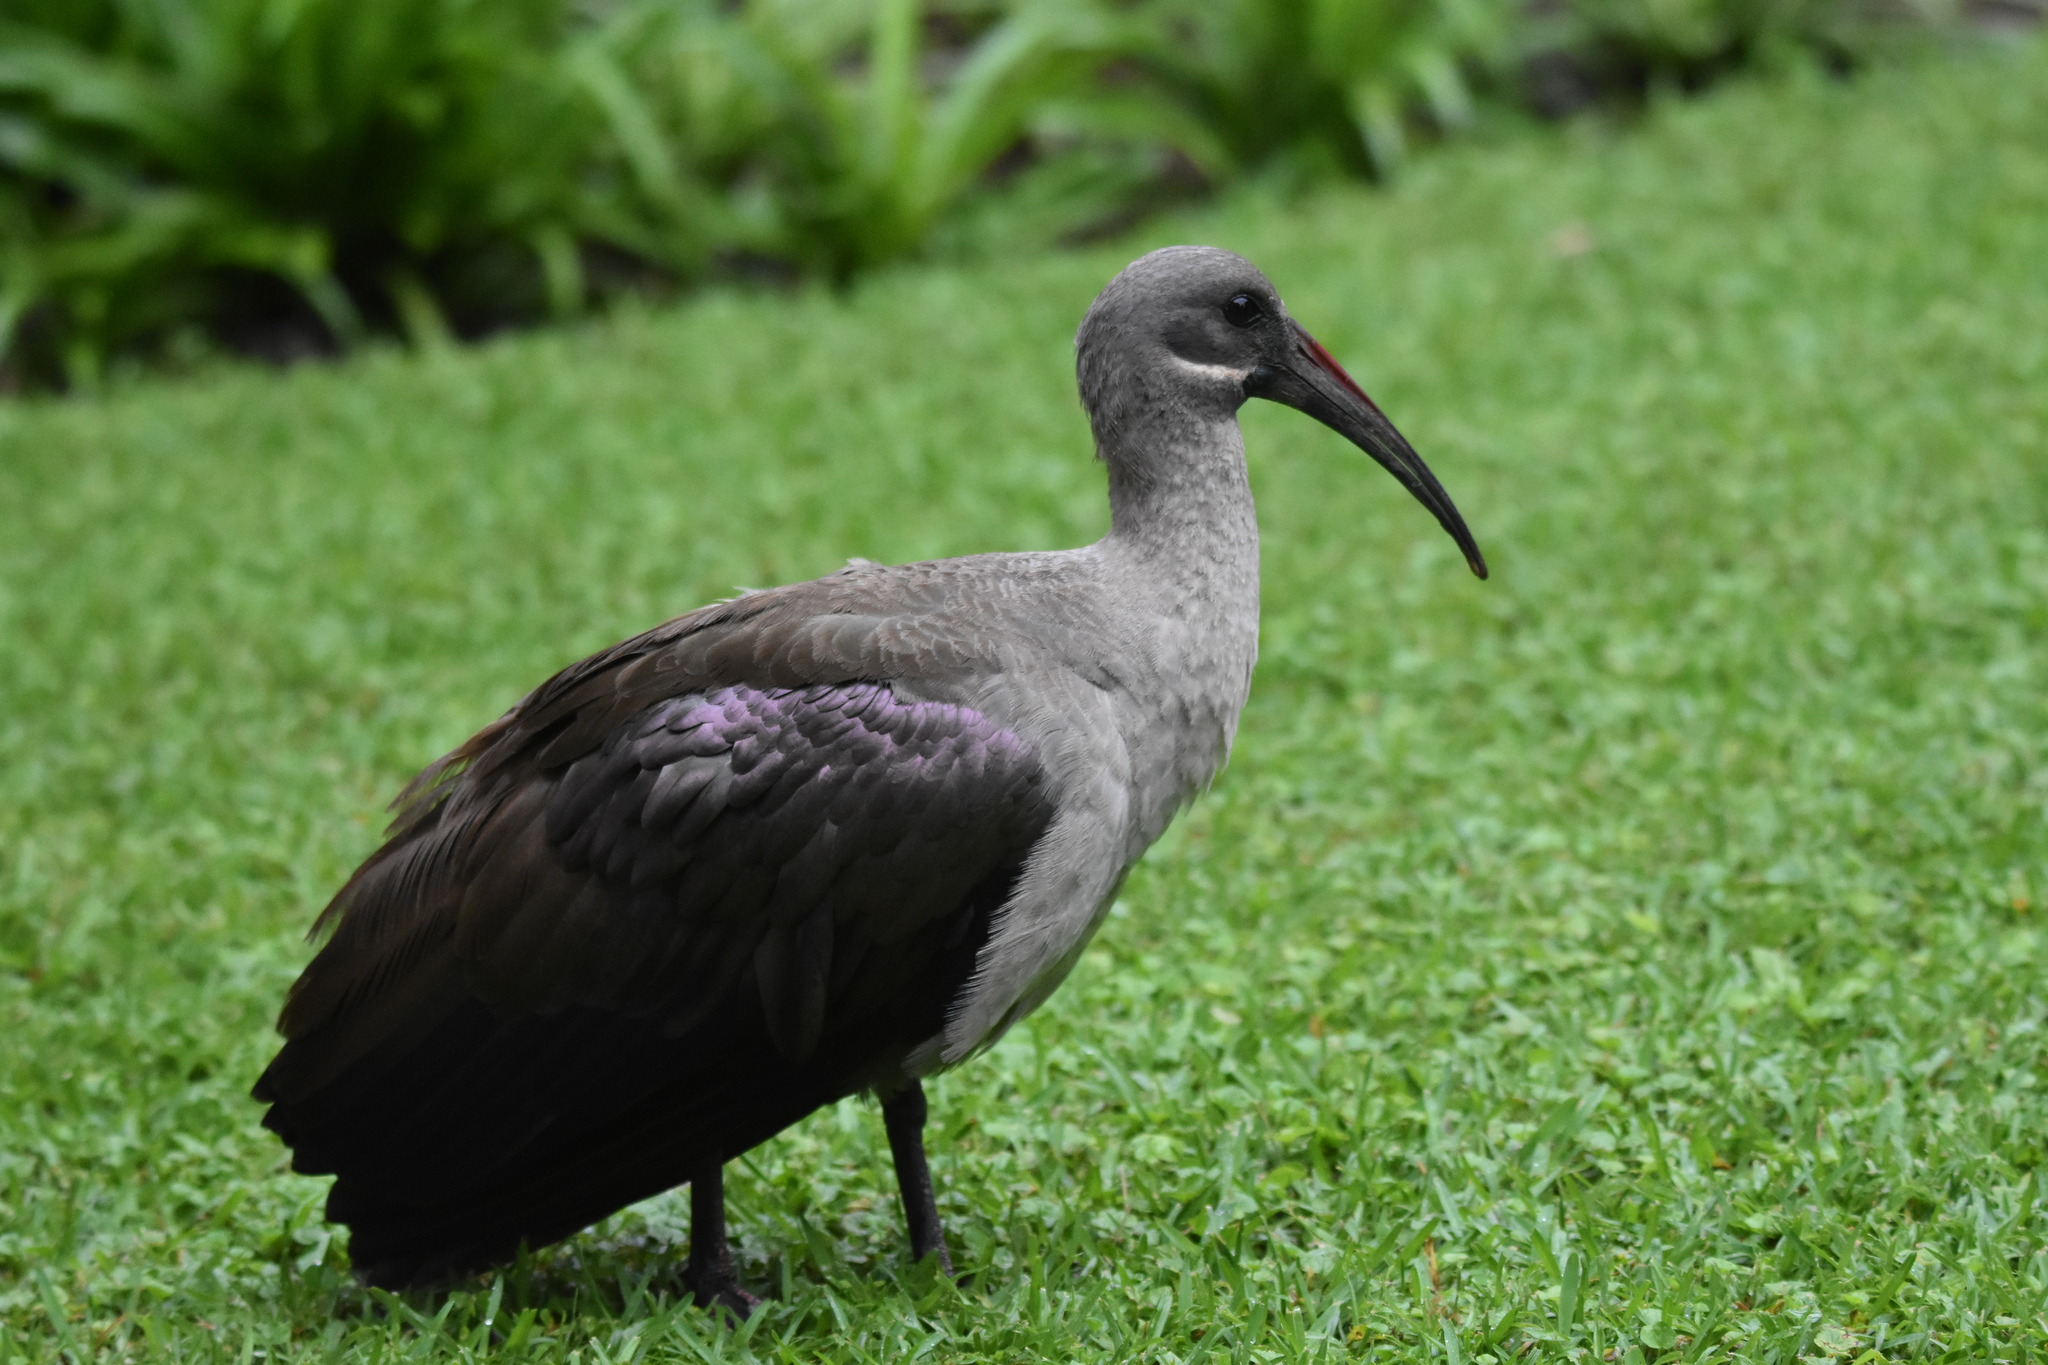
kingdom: Animalia
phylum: Chordata
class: Aves
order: Pelecaniformes
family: Threskiornithidae
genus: Bostrychia
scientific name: Bostrychia hagedash
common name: Hadada ibis
